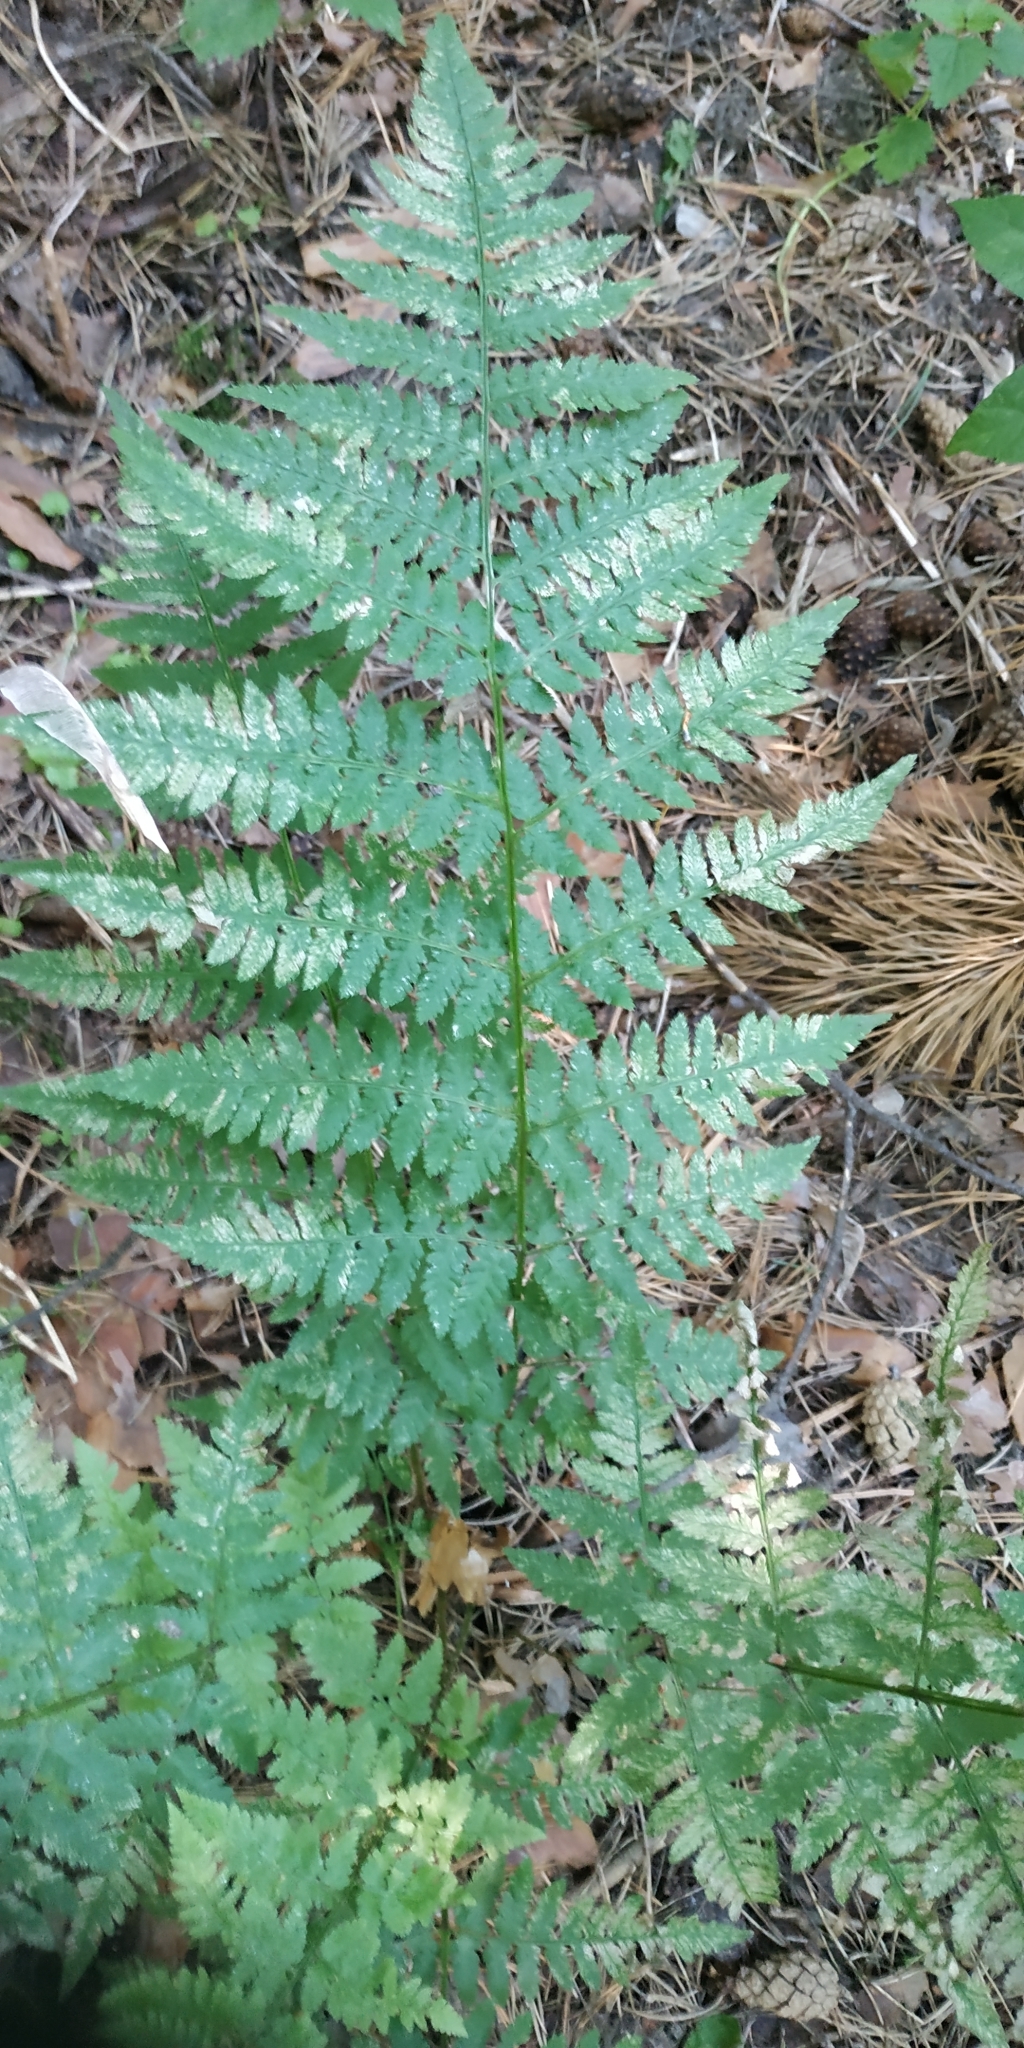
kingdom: Plantae
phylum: Tracheophyta
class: Polypodiopsida
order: Polypodiales
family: Dryopteridaceae
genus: Dryopteris
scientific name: Dryopteris carthusiana
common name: Narrow buckler-fern
